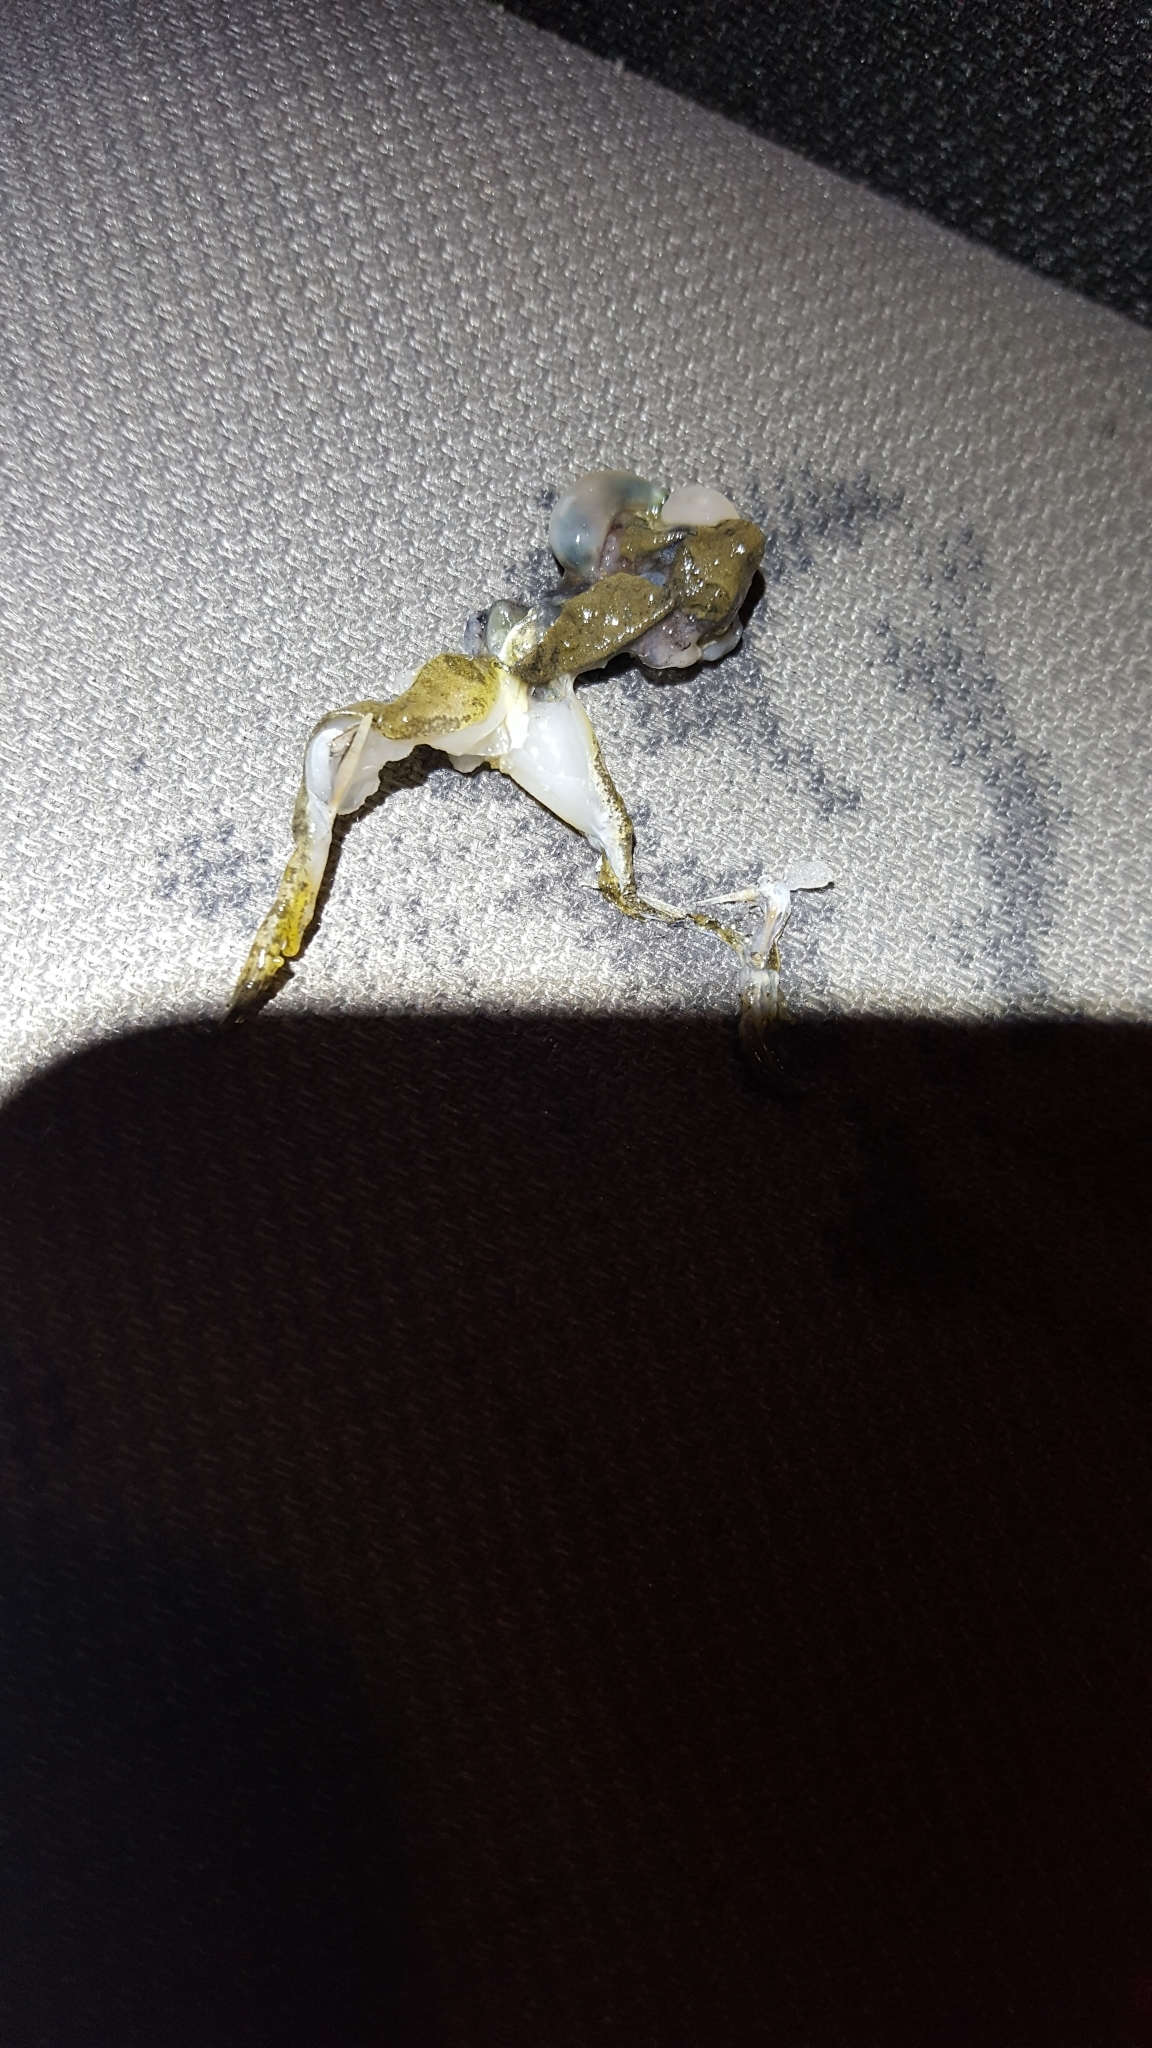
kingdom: Animalia
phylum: Chordata
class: Amphibia
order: Anura
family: Hylidae
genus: Acris
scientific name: Acris blanchardi
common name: Blanchard's cricket frog
